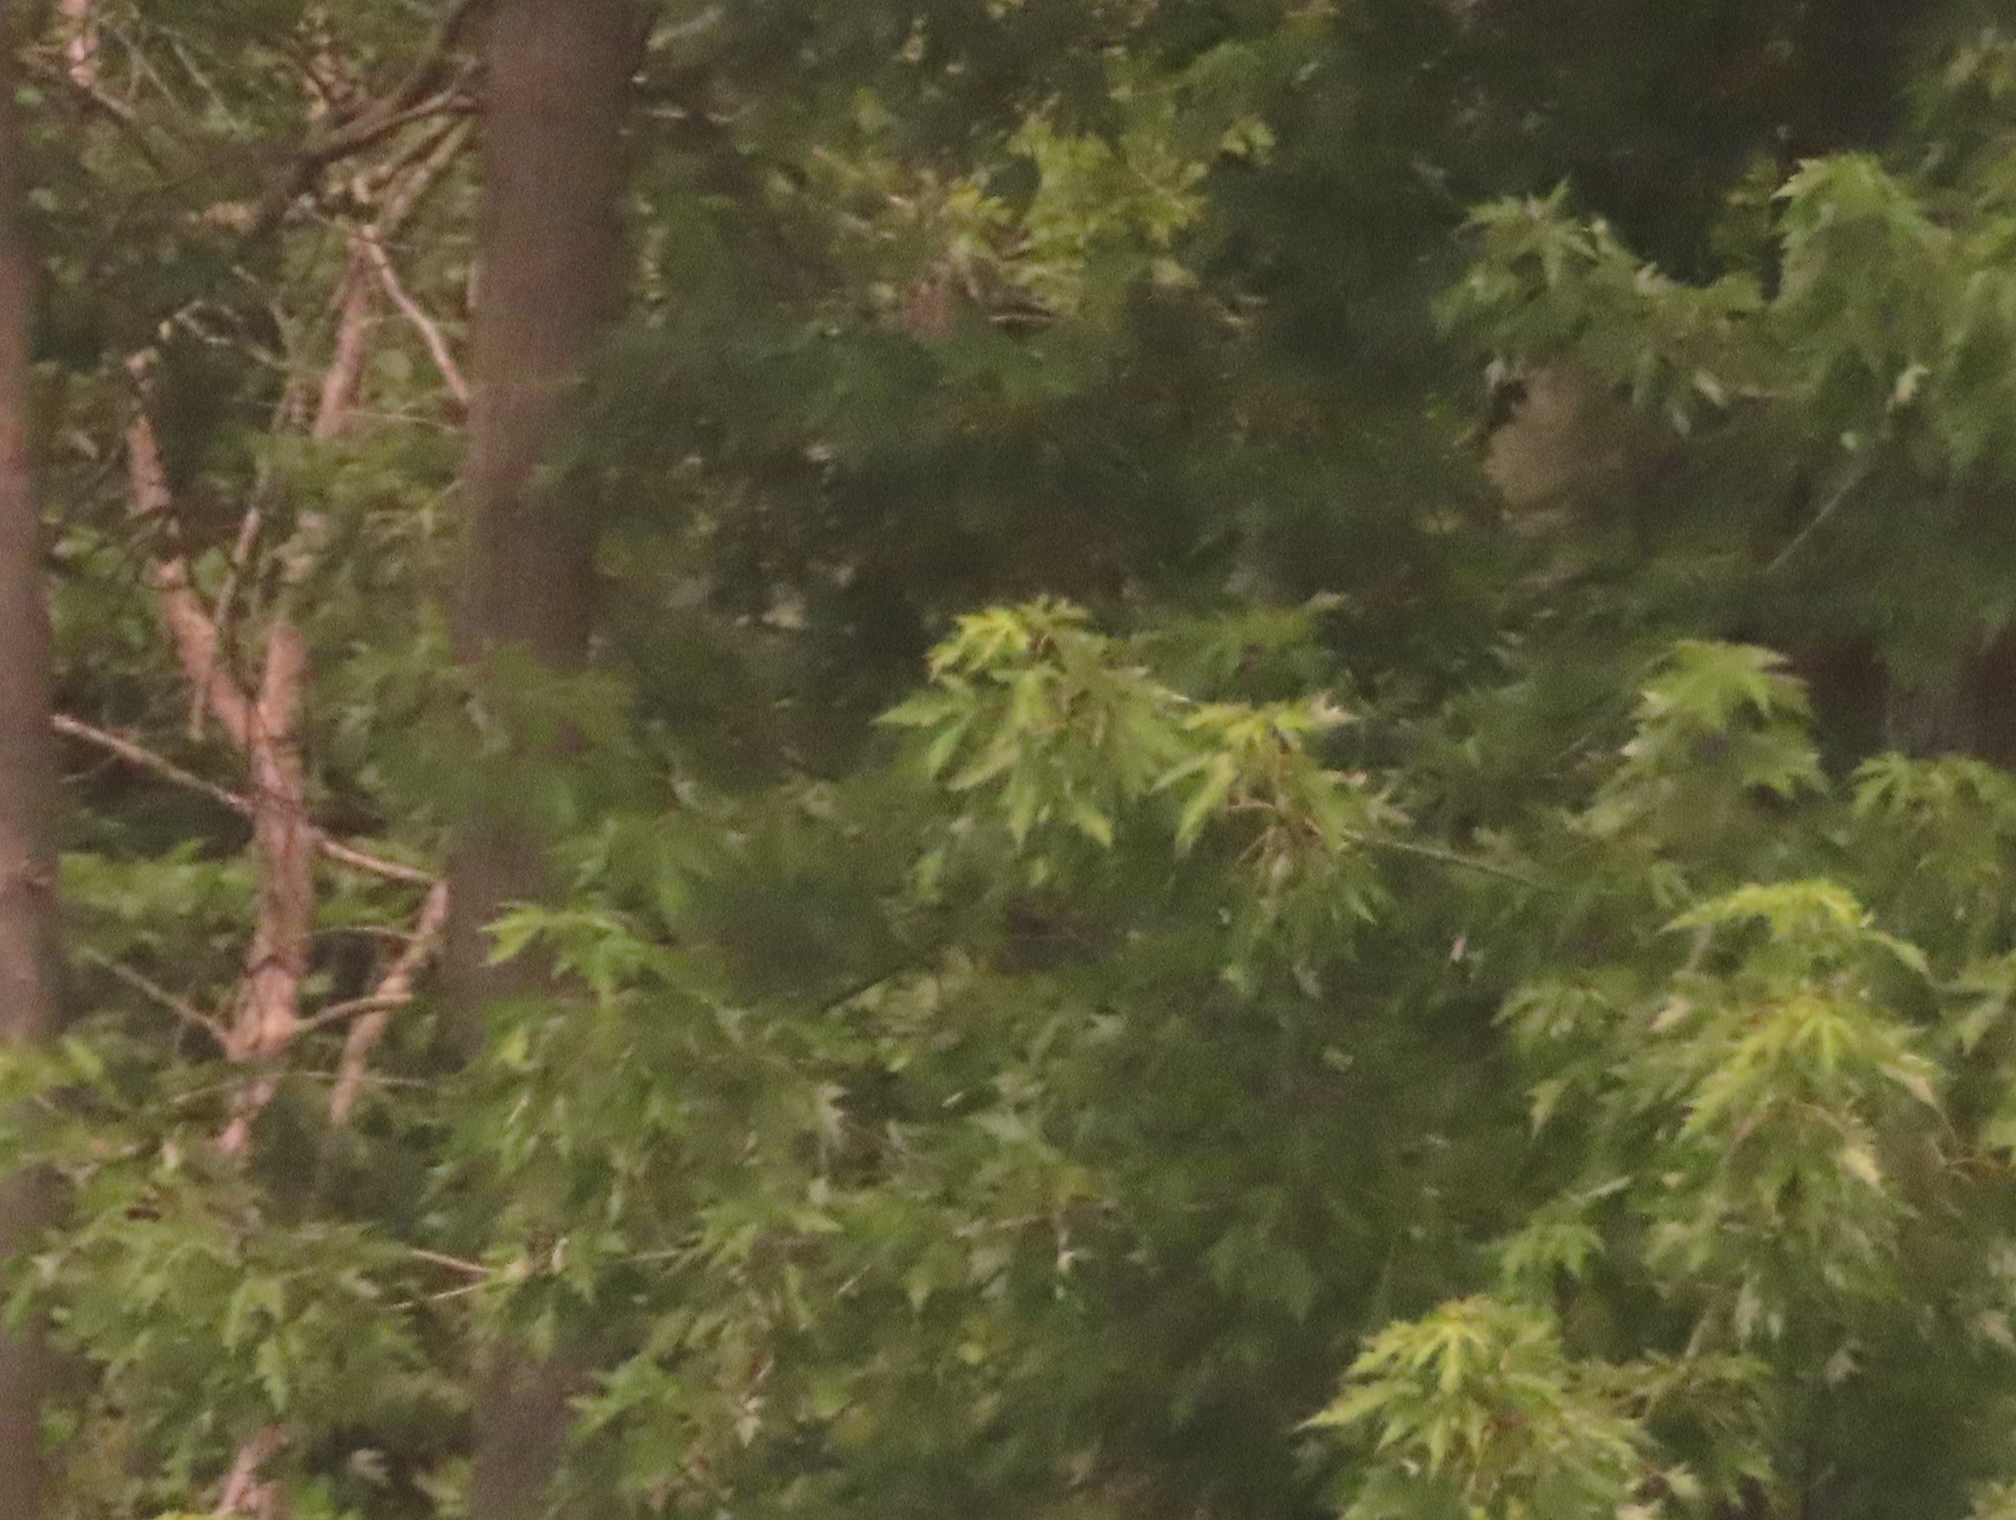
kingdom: Plantae
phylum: Tracheophyta
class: Magnoliopsida
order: Sapindales
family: Sapindaceae
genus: Acer
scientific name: Acer saccharinum
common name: Silver maple
